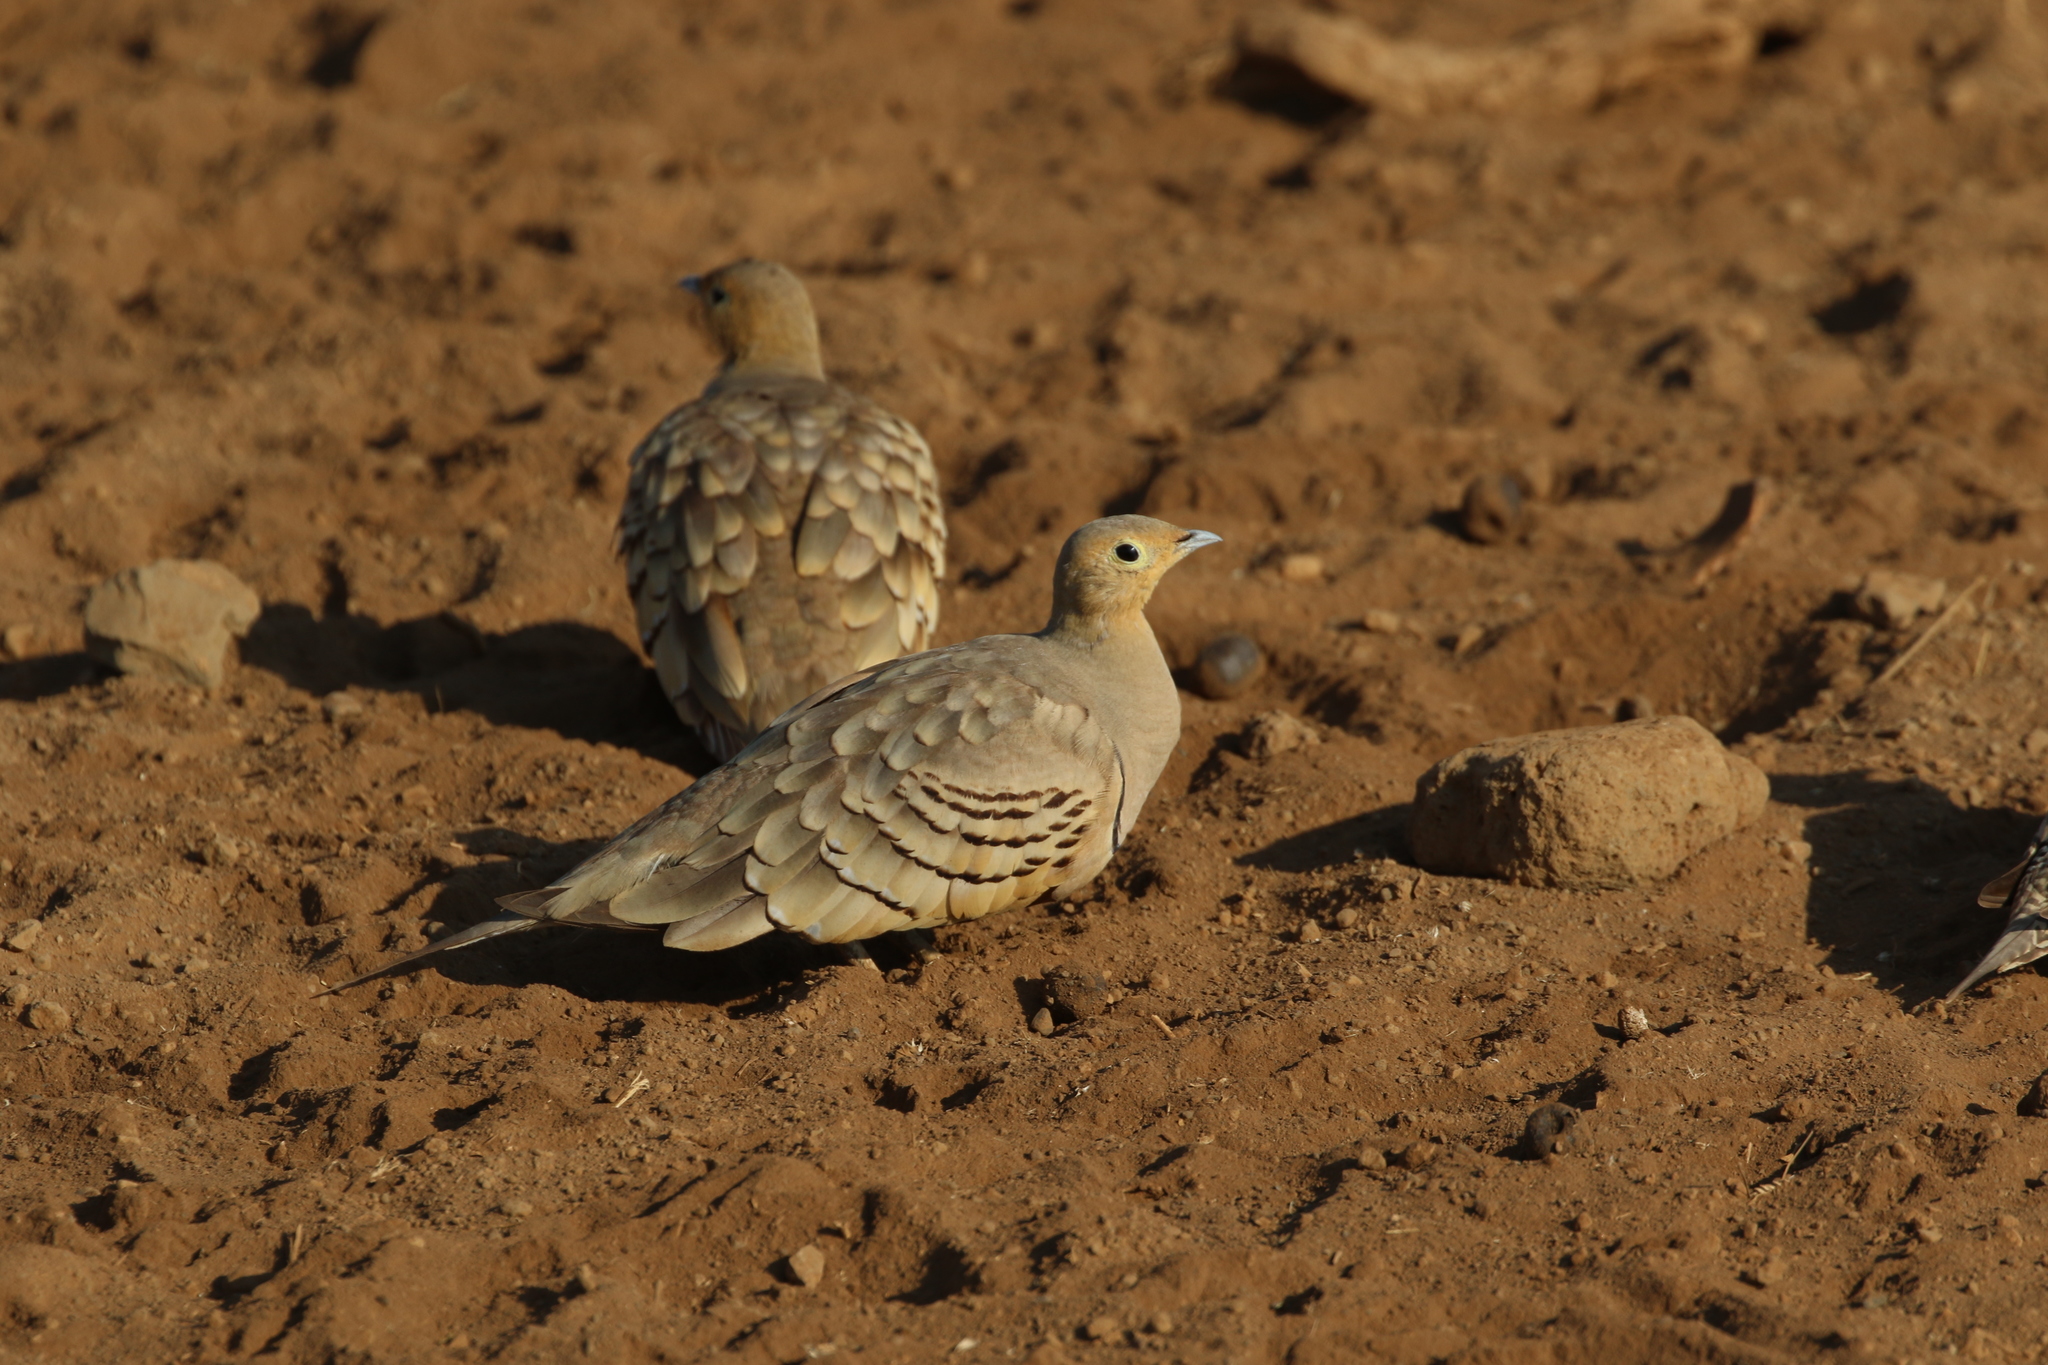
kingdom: Animalia
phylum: Chordata
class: Aves
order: Pteroclidiformes
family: Pteroclididae
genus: Pterocles
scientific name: Pterocles exustus
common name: Chestnut-bellied sandgrouse
